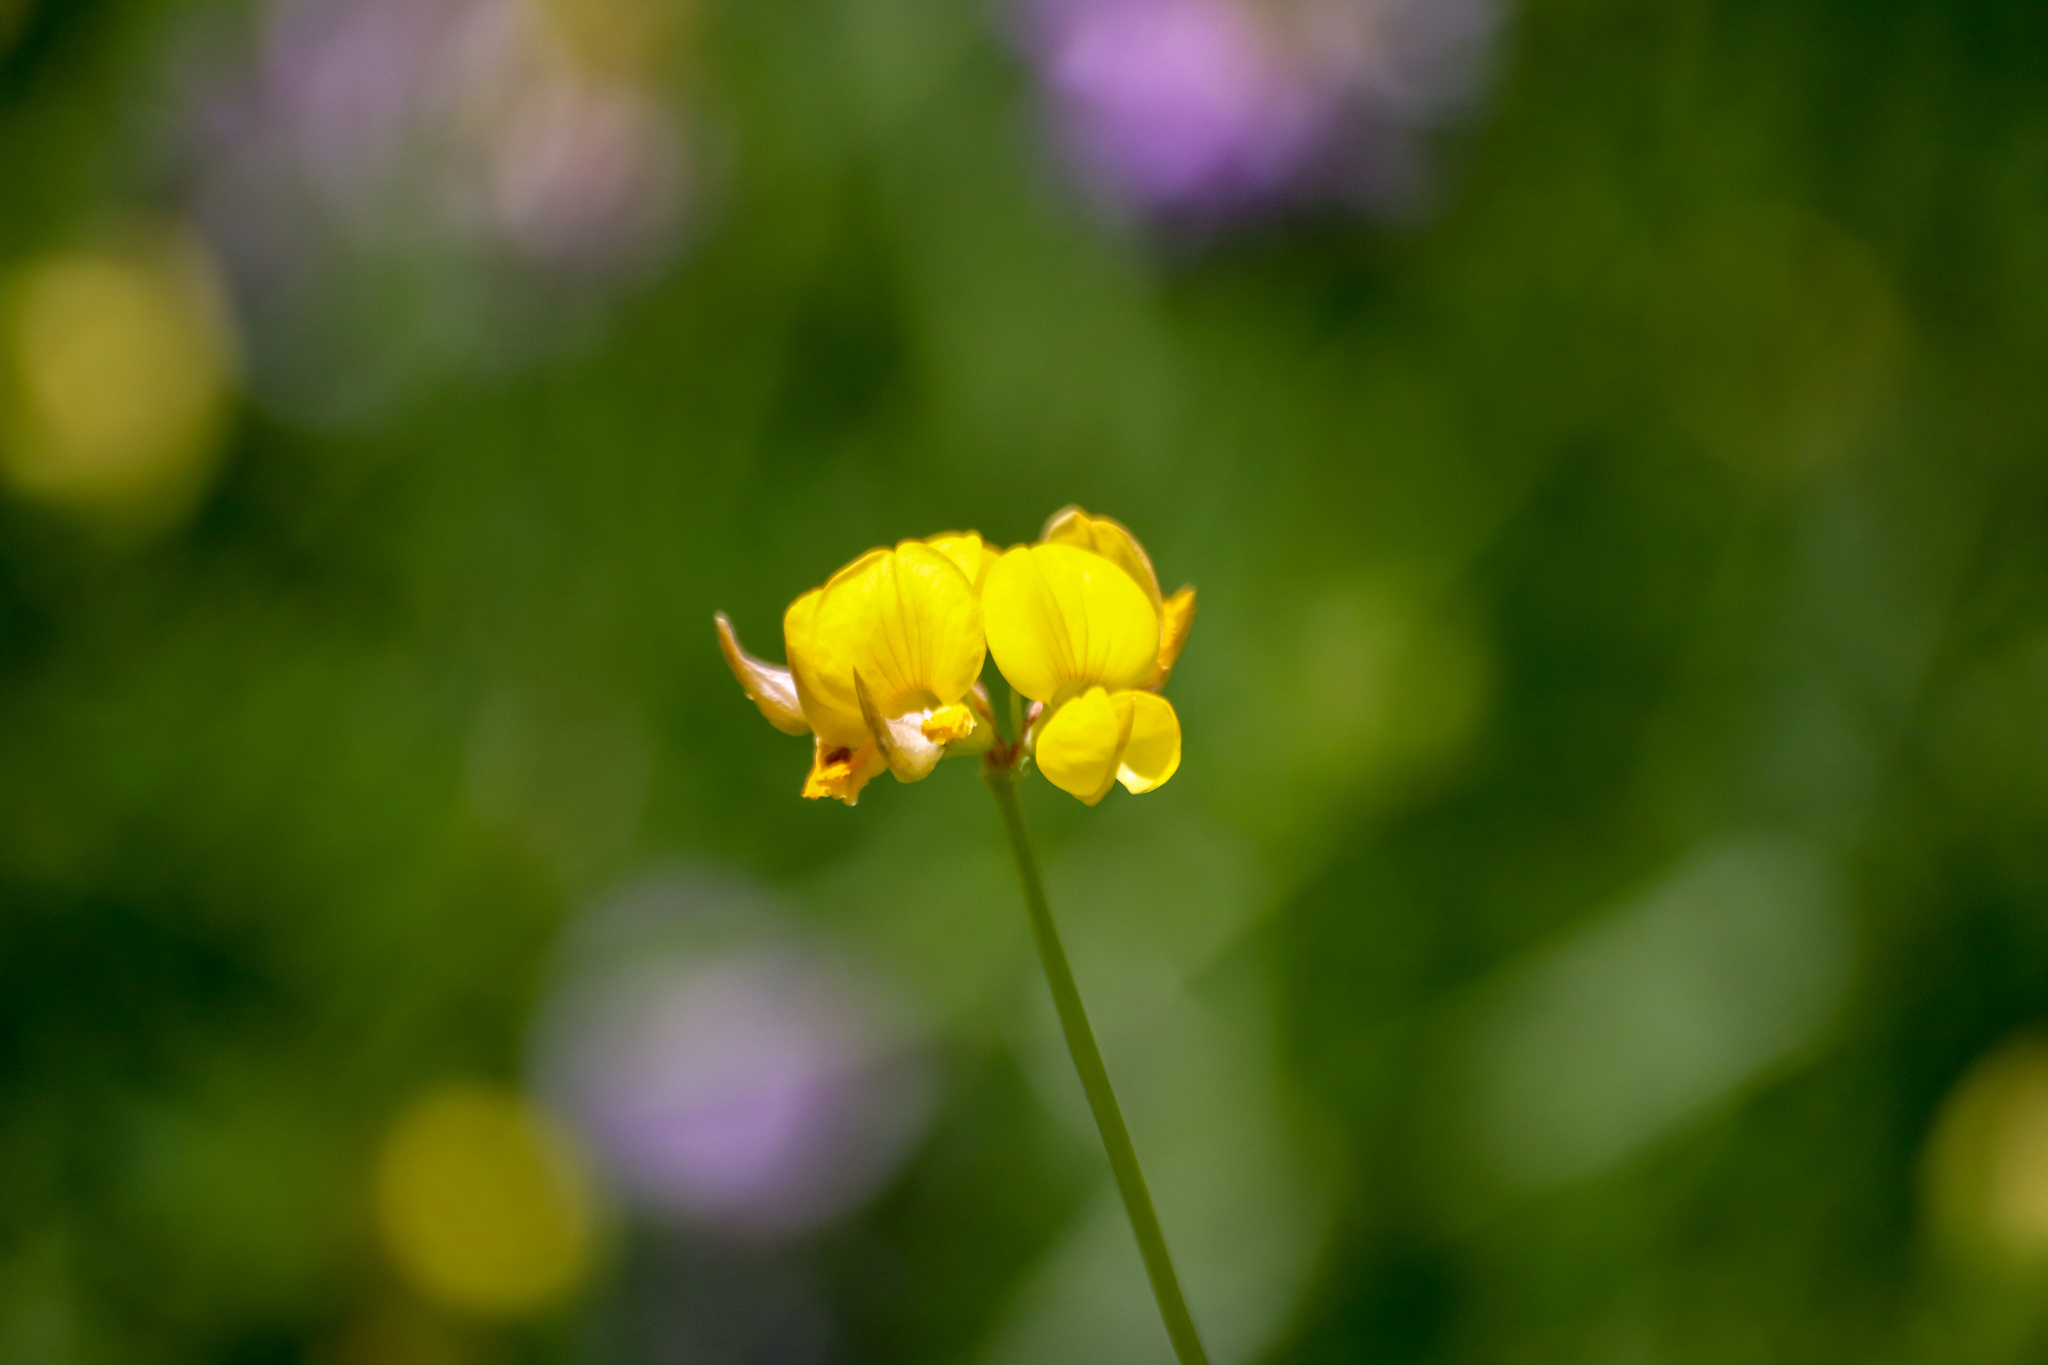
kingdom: Plantae
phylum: Tracheophyta
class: Magnoliopsida
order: Fabales
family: Fabaceae
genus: Lotus
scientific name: Lotus corniculatus
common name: Common bird's-foot-trefoil
